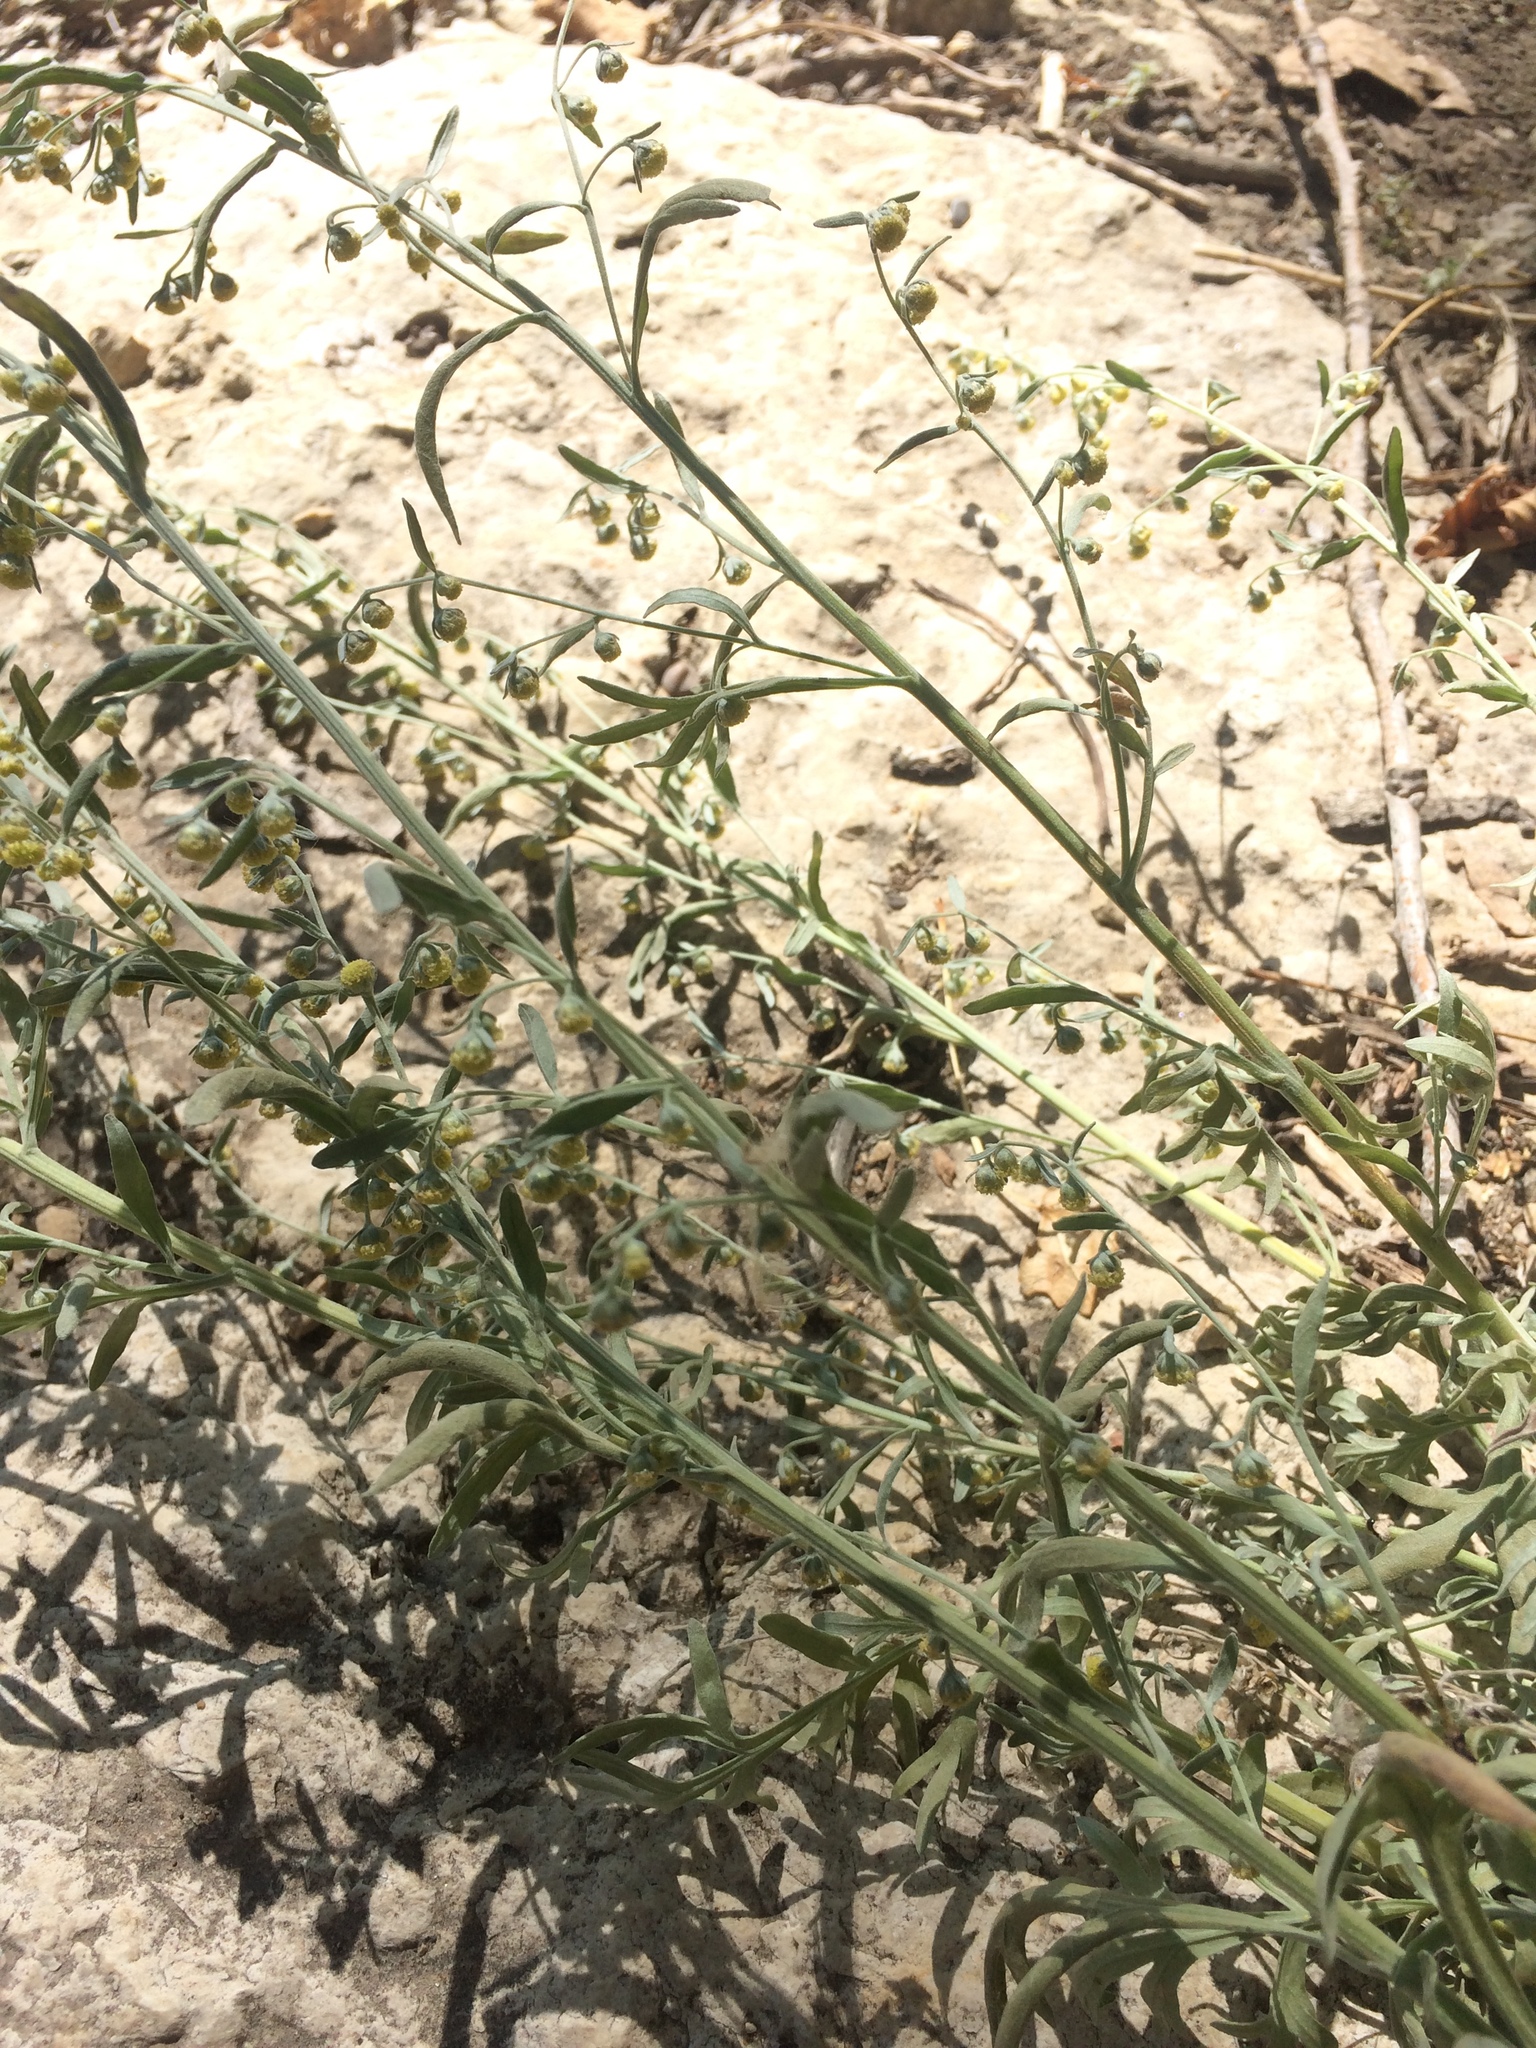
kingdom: Plantae
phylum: Tracheophyta
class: Magnoliopsida
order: Asterales
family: Asteraceae
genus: Artemisia
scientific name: Artemisia absinthium
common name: Wormwood
